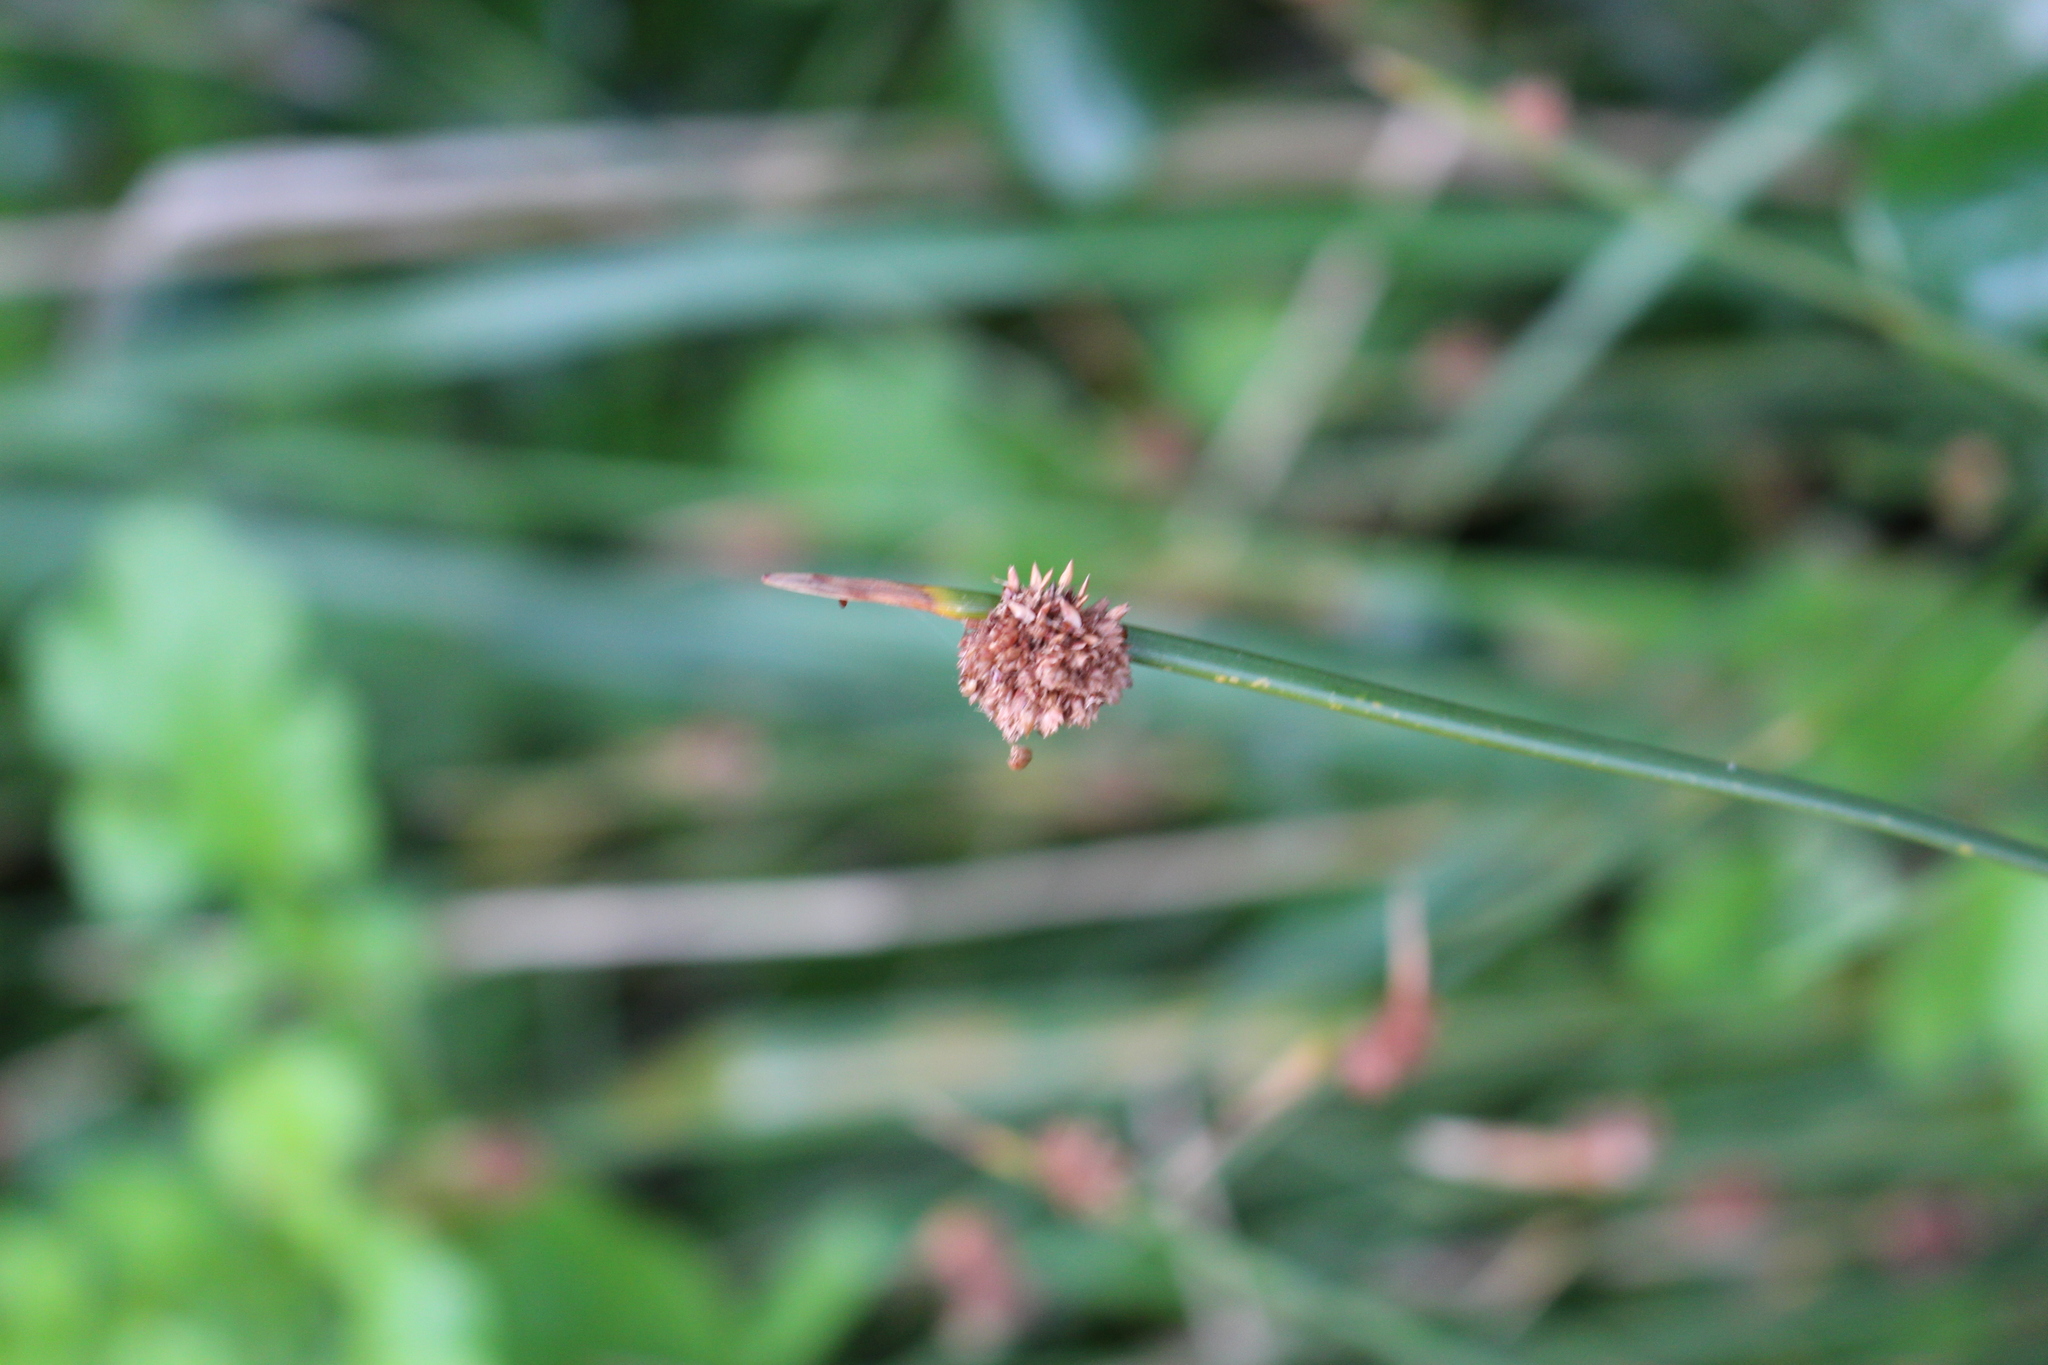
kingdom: Plantae
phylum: Tracheophyta
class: Liliopsida
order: Poales
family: Cyperaceae
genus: Ficinia
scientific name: Ficinia nodosa
